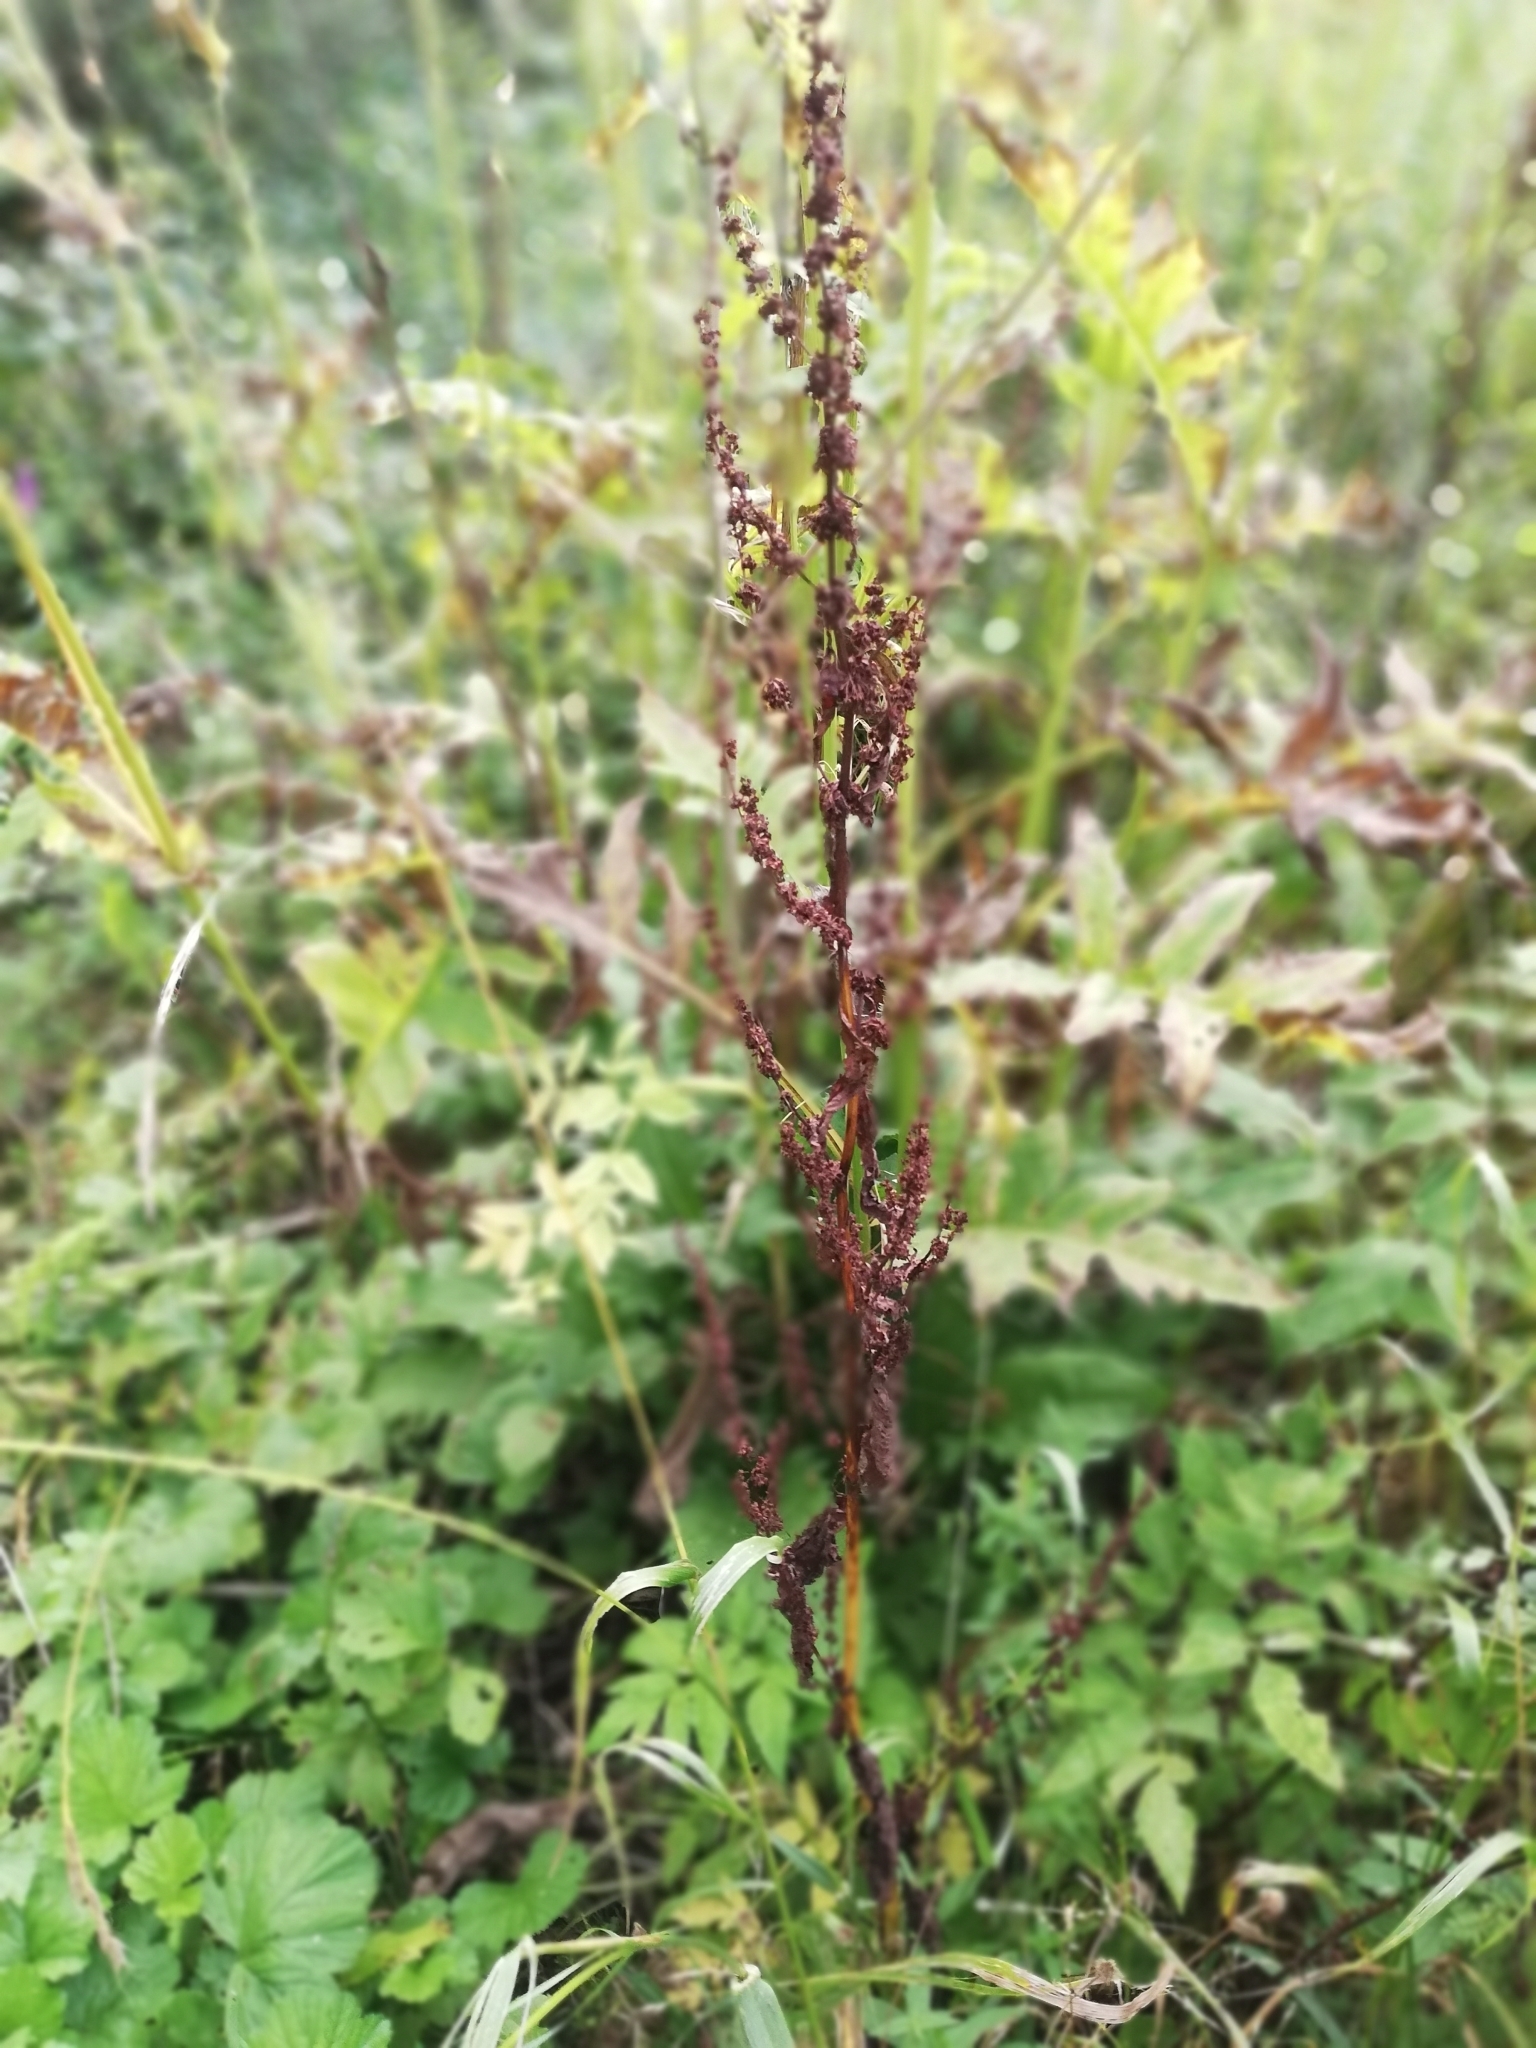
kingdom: Plantae
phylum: Tracheophyta
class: Magnoliopsida
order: Caryophyllales
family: Polygonaceae
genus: Rumex
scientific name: Rumex obtusifolius
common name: Bitter dock
